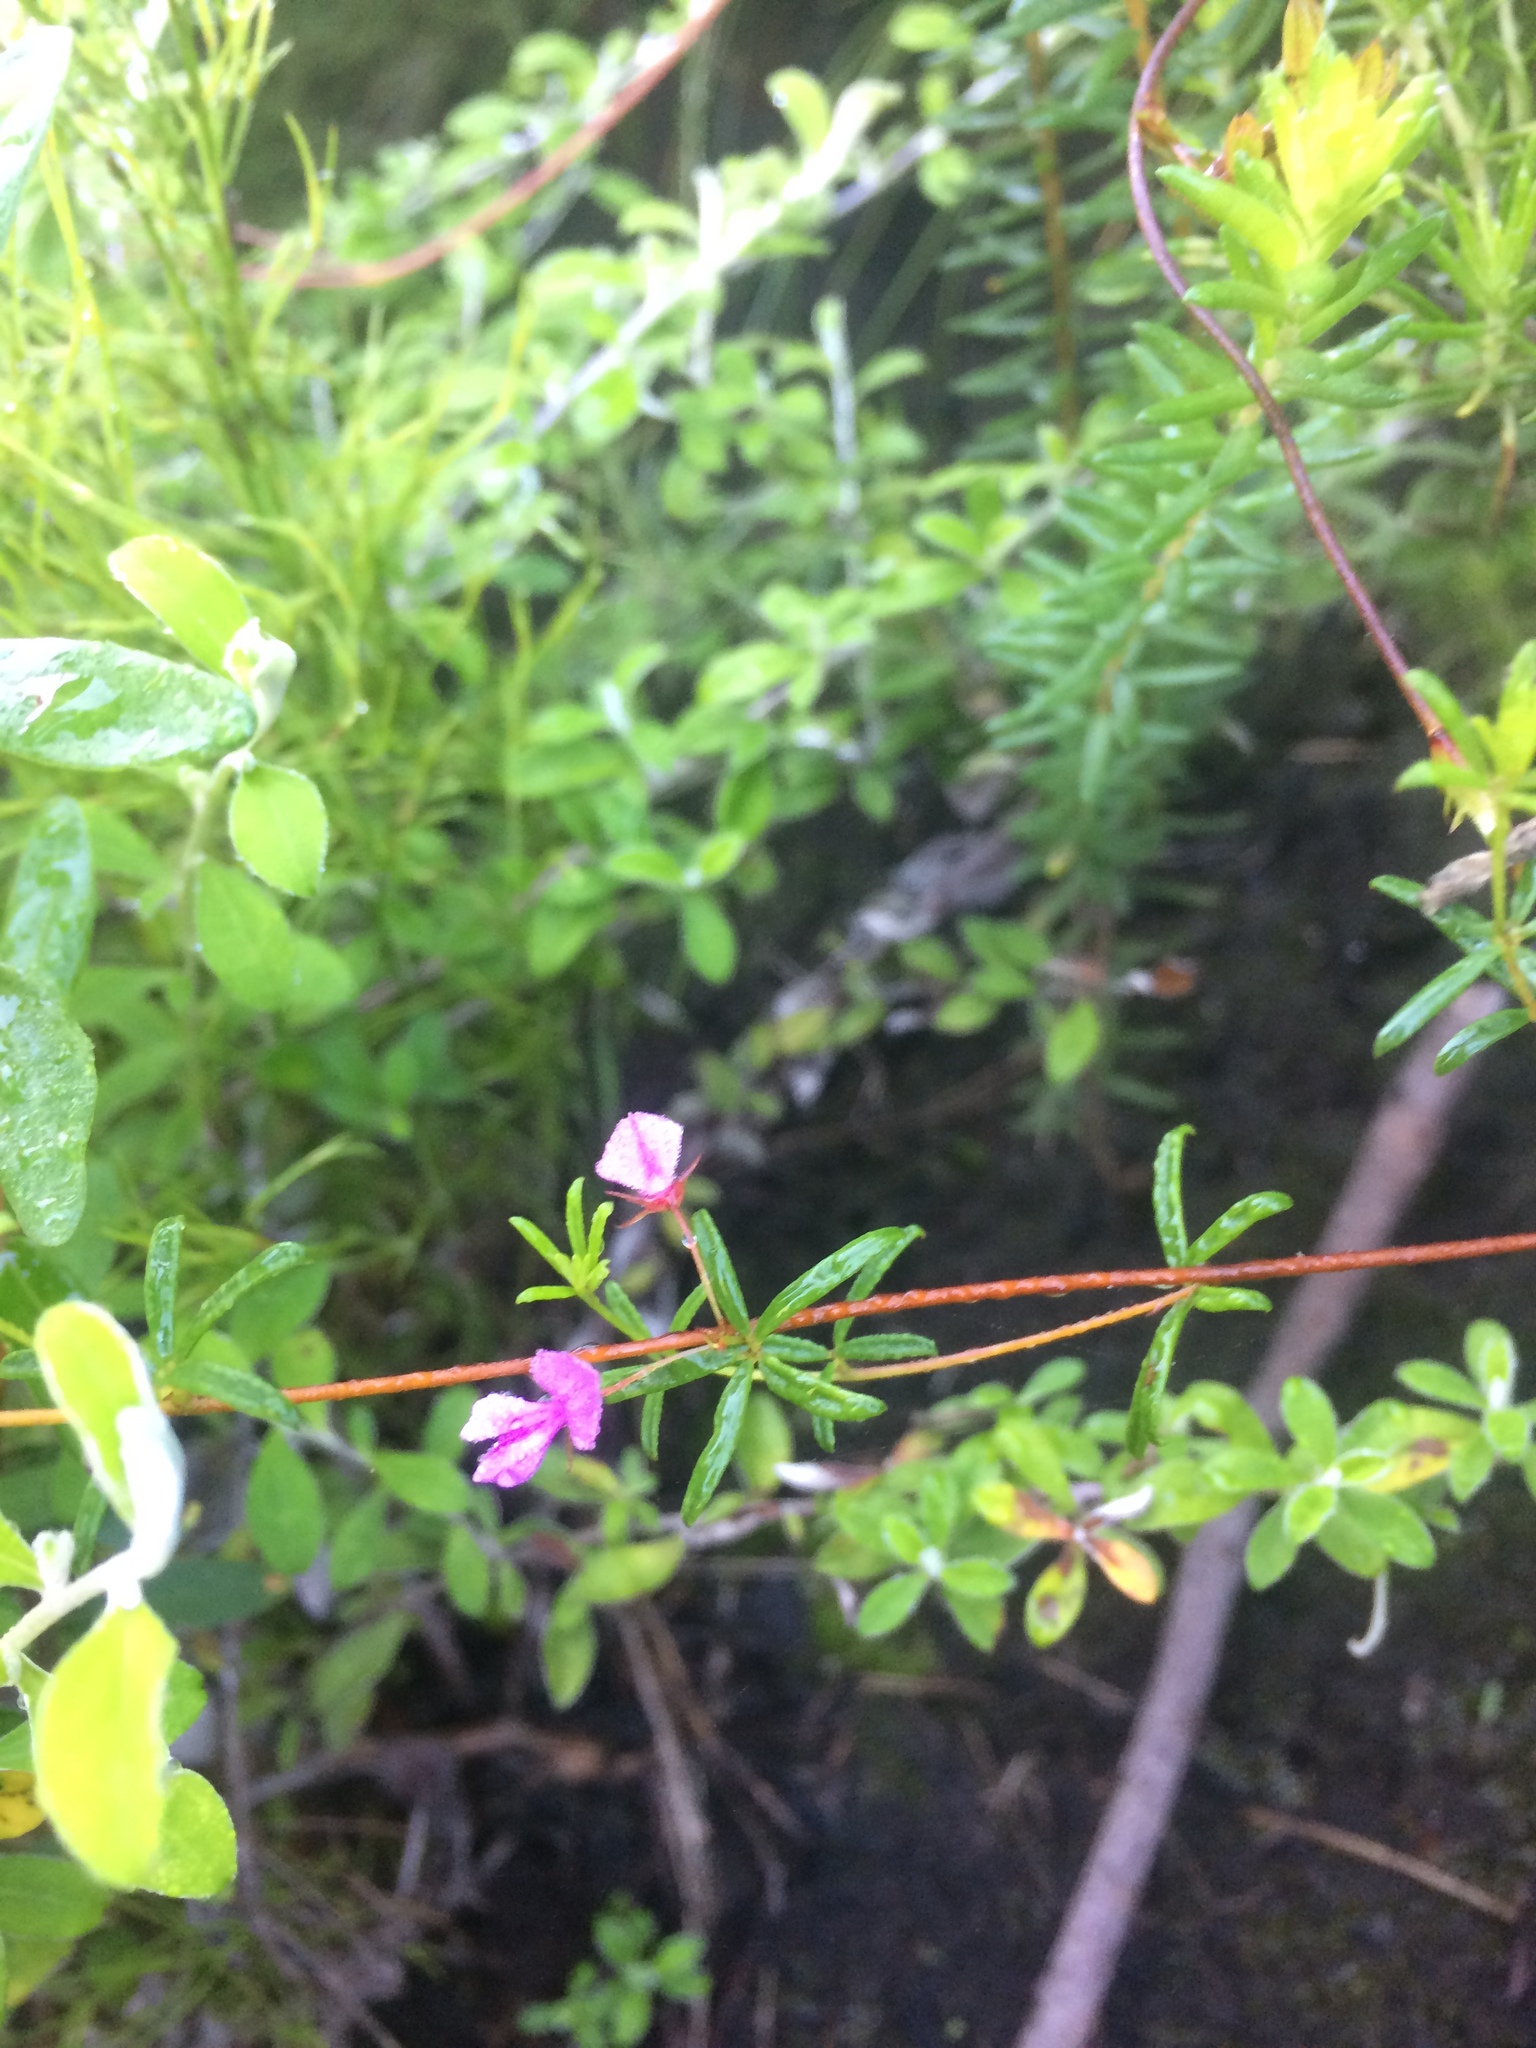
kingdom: Plantae
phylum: Tracheophyta
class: Magnoliopsida
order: Fabales
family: Fabaceae
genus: Indigofera
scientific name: Indigofera setosa
